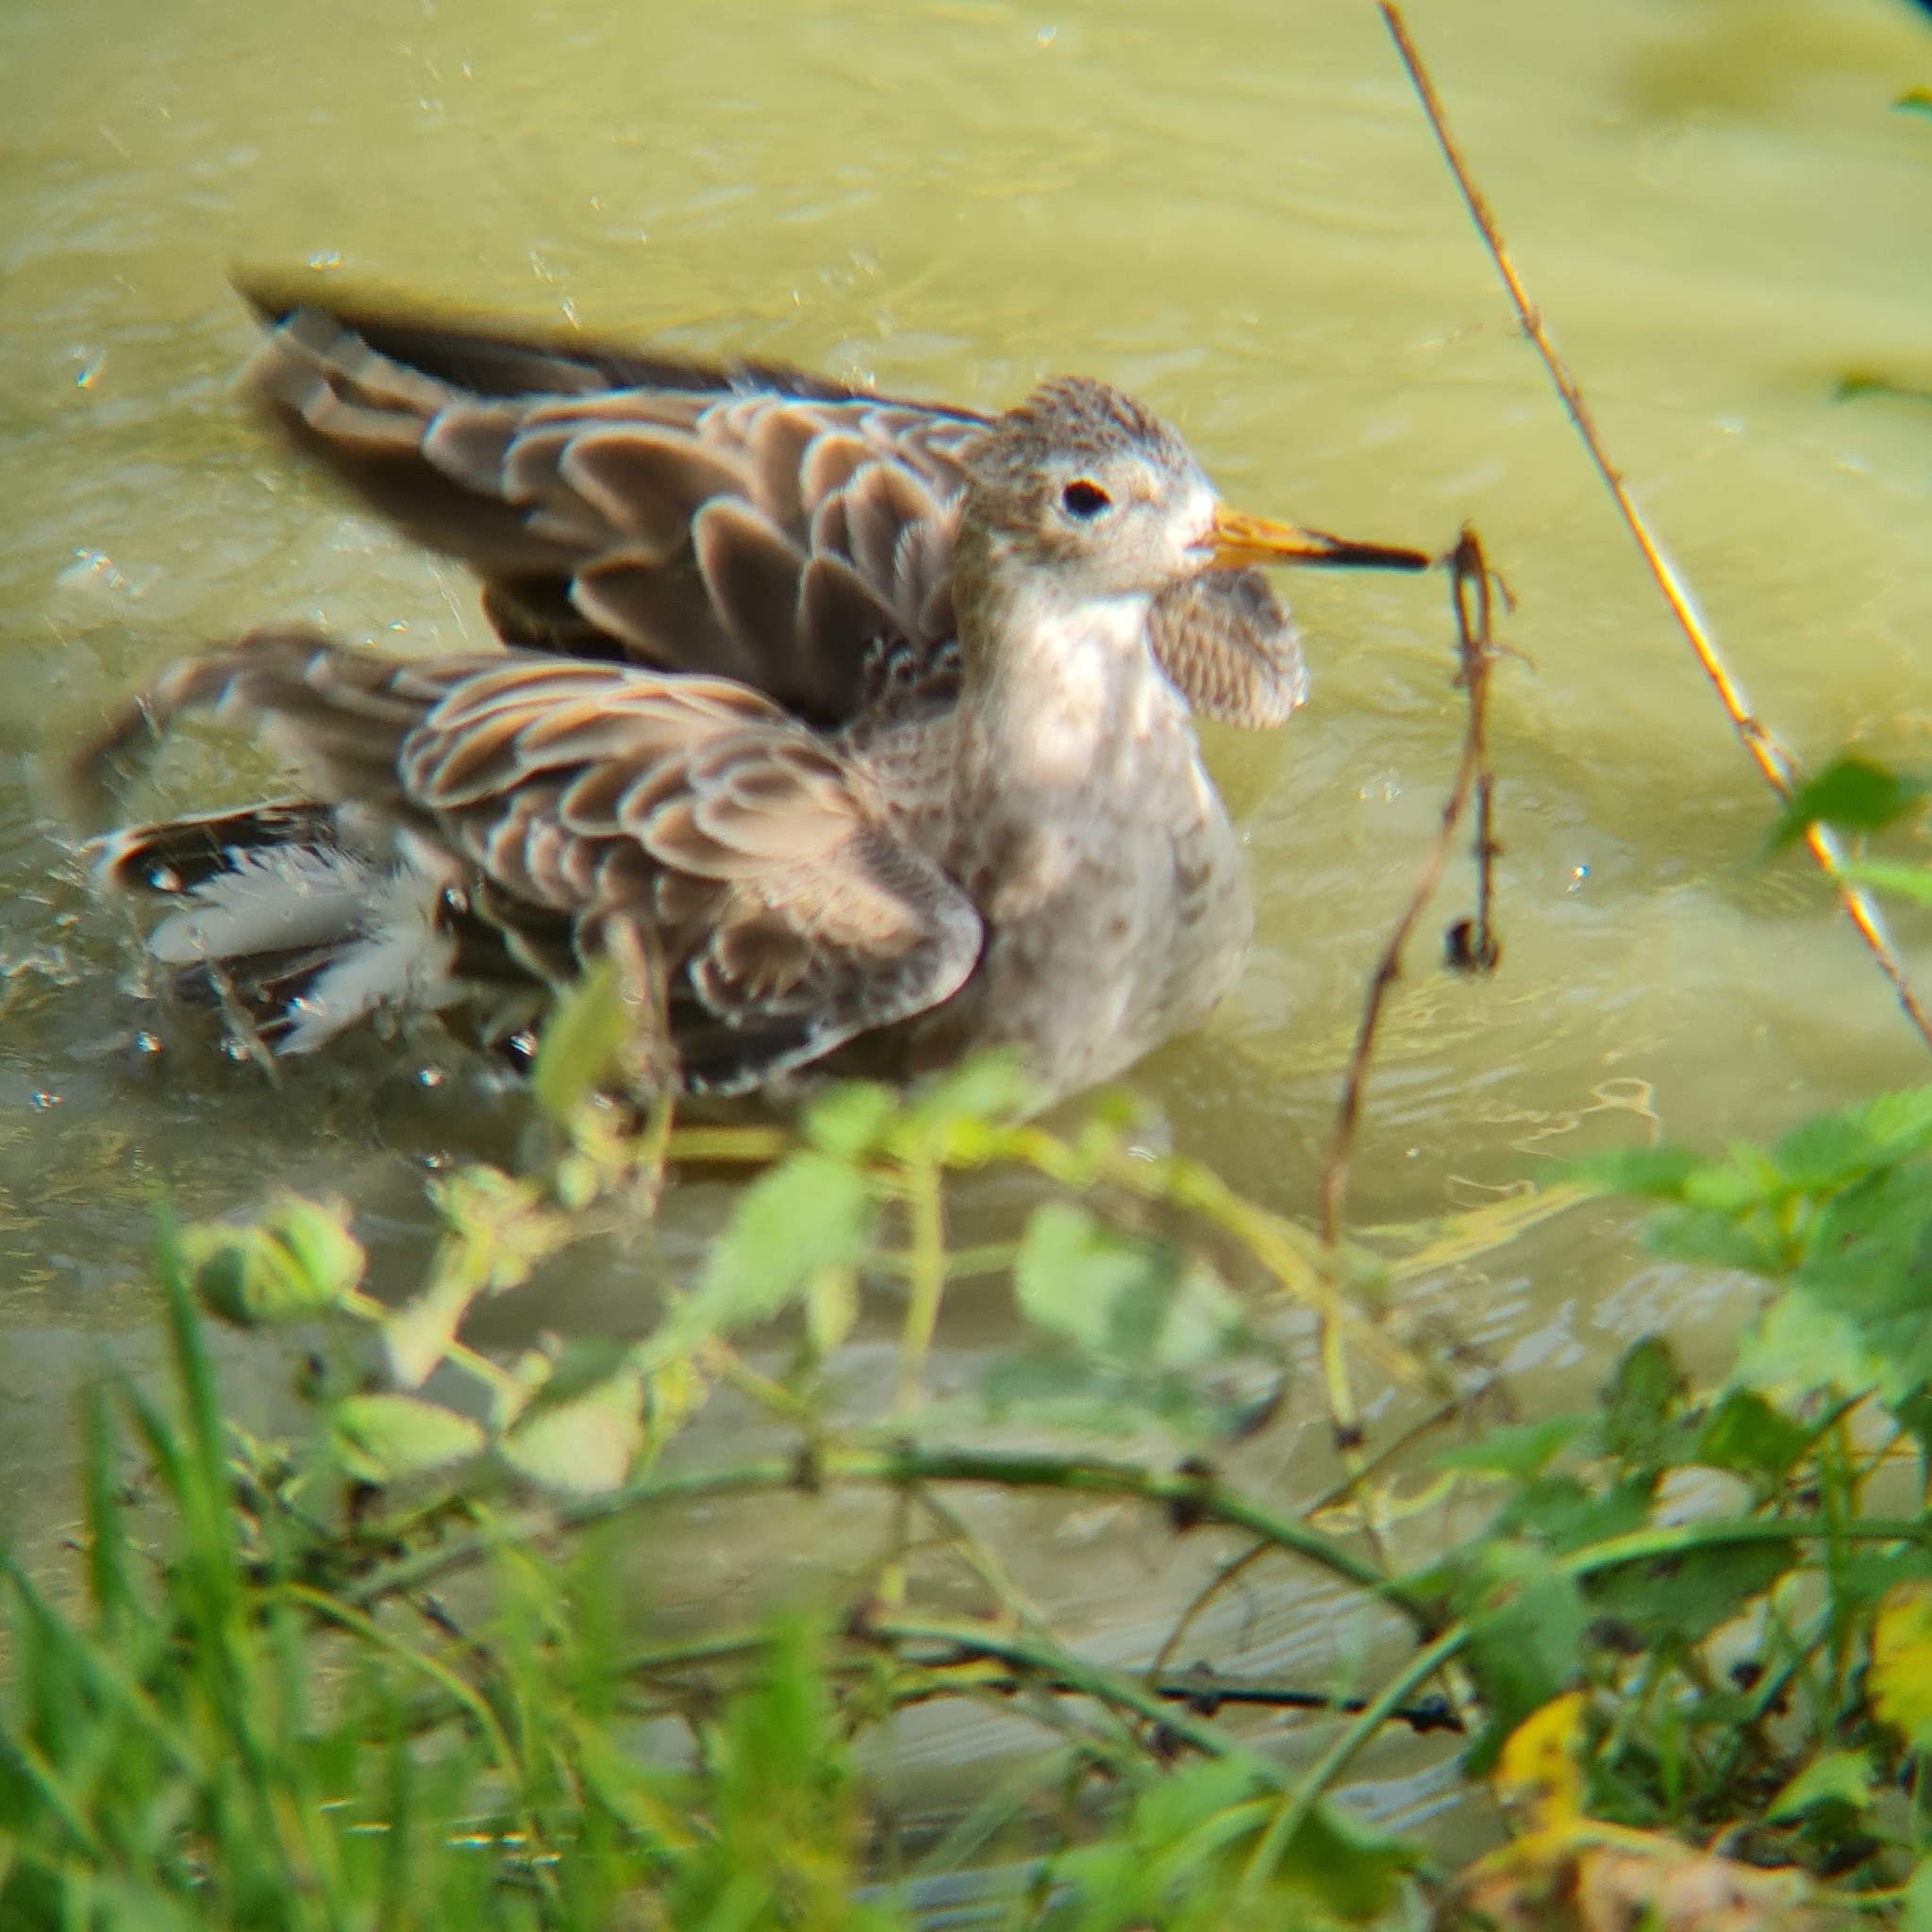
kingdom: Animalia
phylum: Chordata
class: Aves
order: Charadriiformes
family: Scolopacidae
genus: Calidris
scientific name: Calidris pugnax
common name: Ruff
